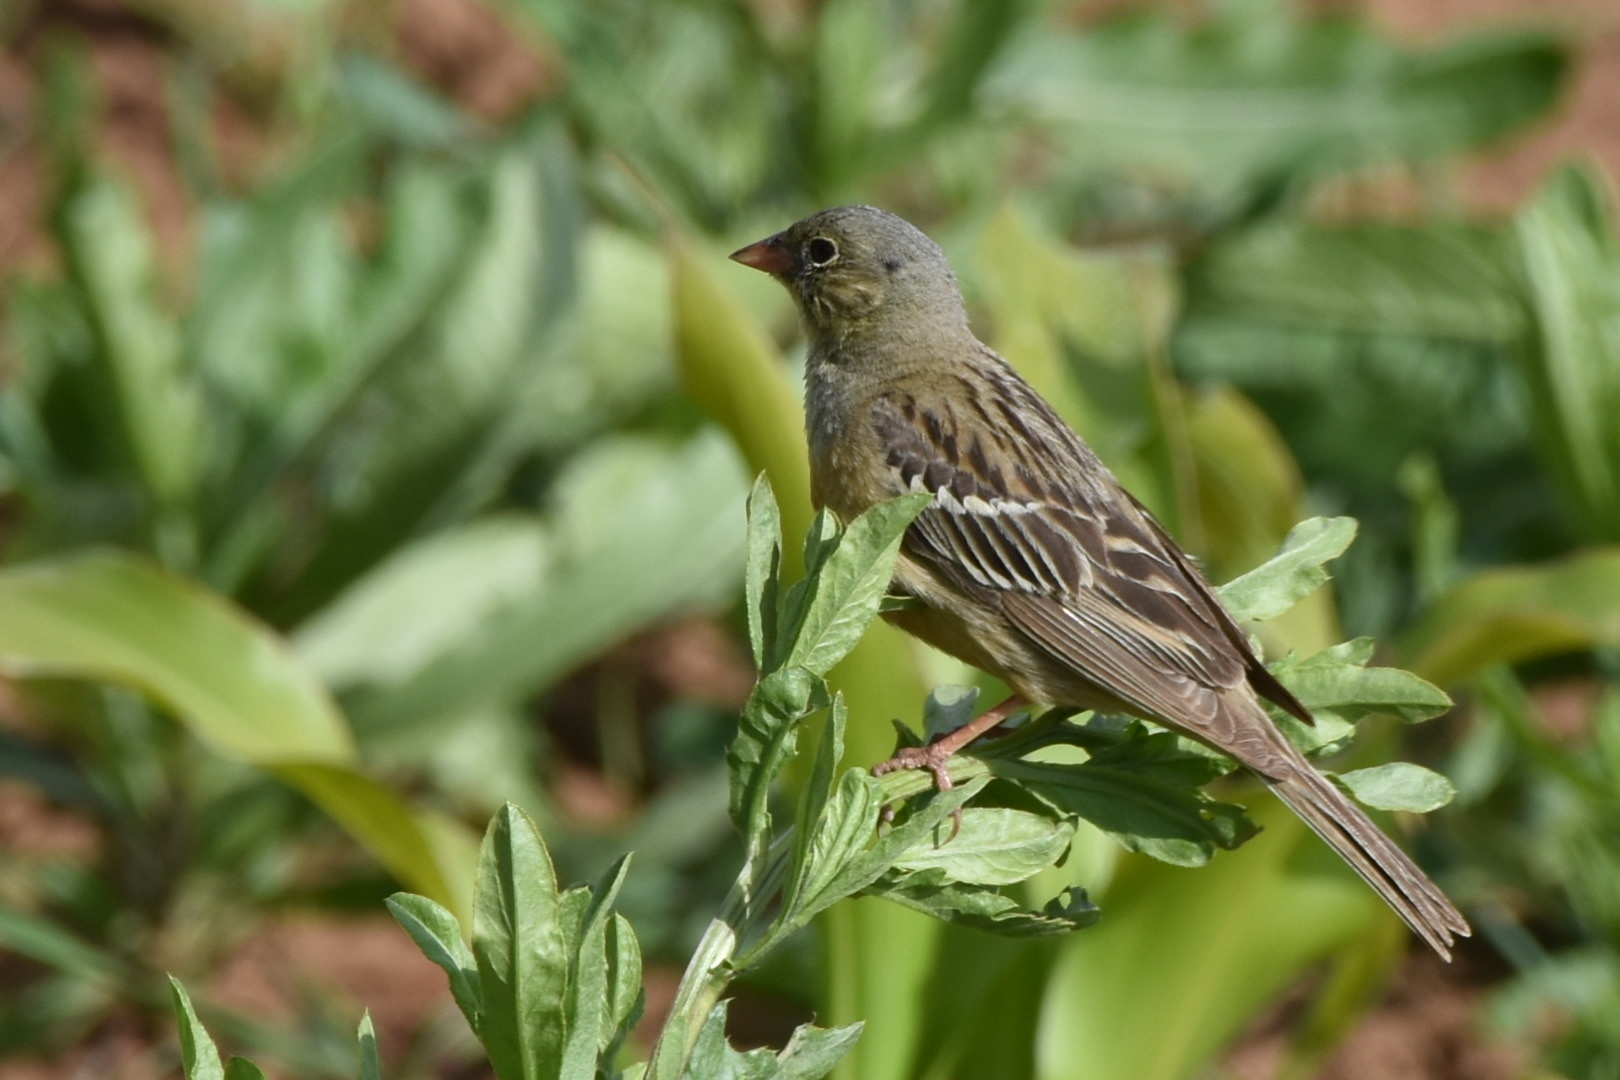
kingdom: Animalia
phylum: Chordata
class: Aves
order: Passeriformes
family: Emberizidae
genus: Emberiza
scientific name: Emberiza hortulana
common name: Ortolan bunting
